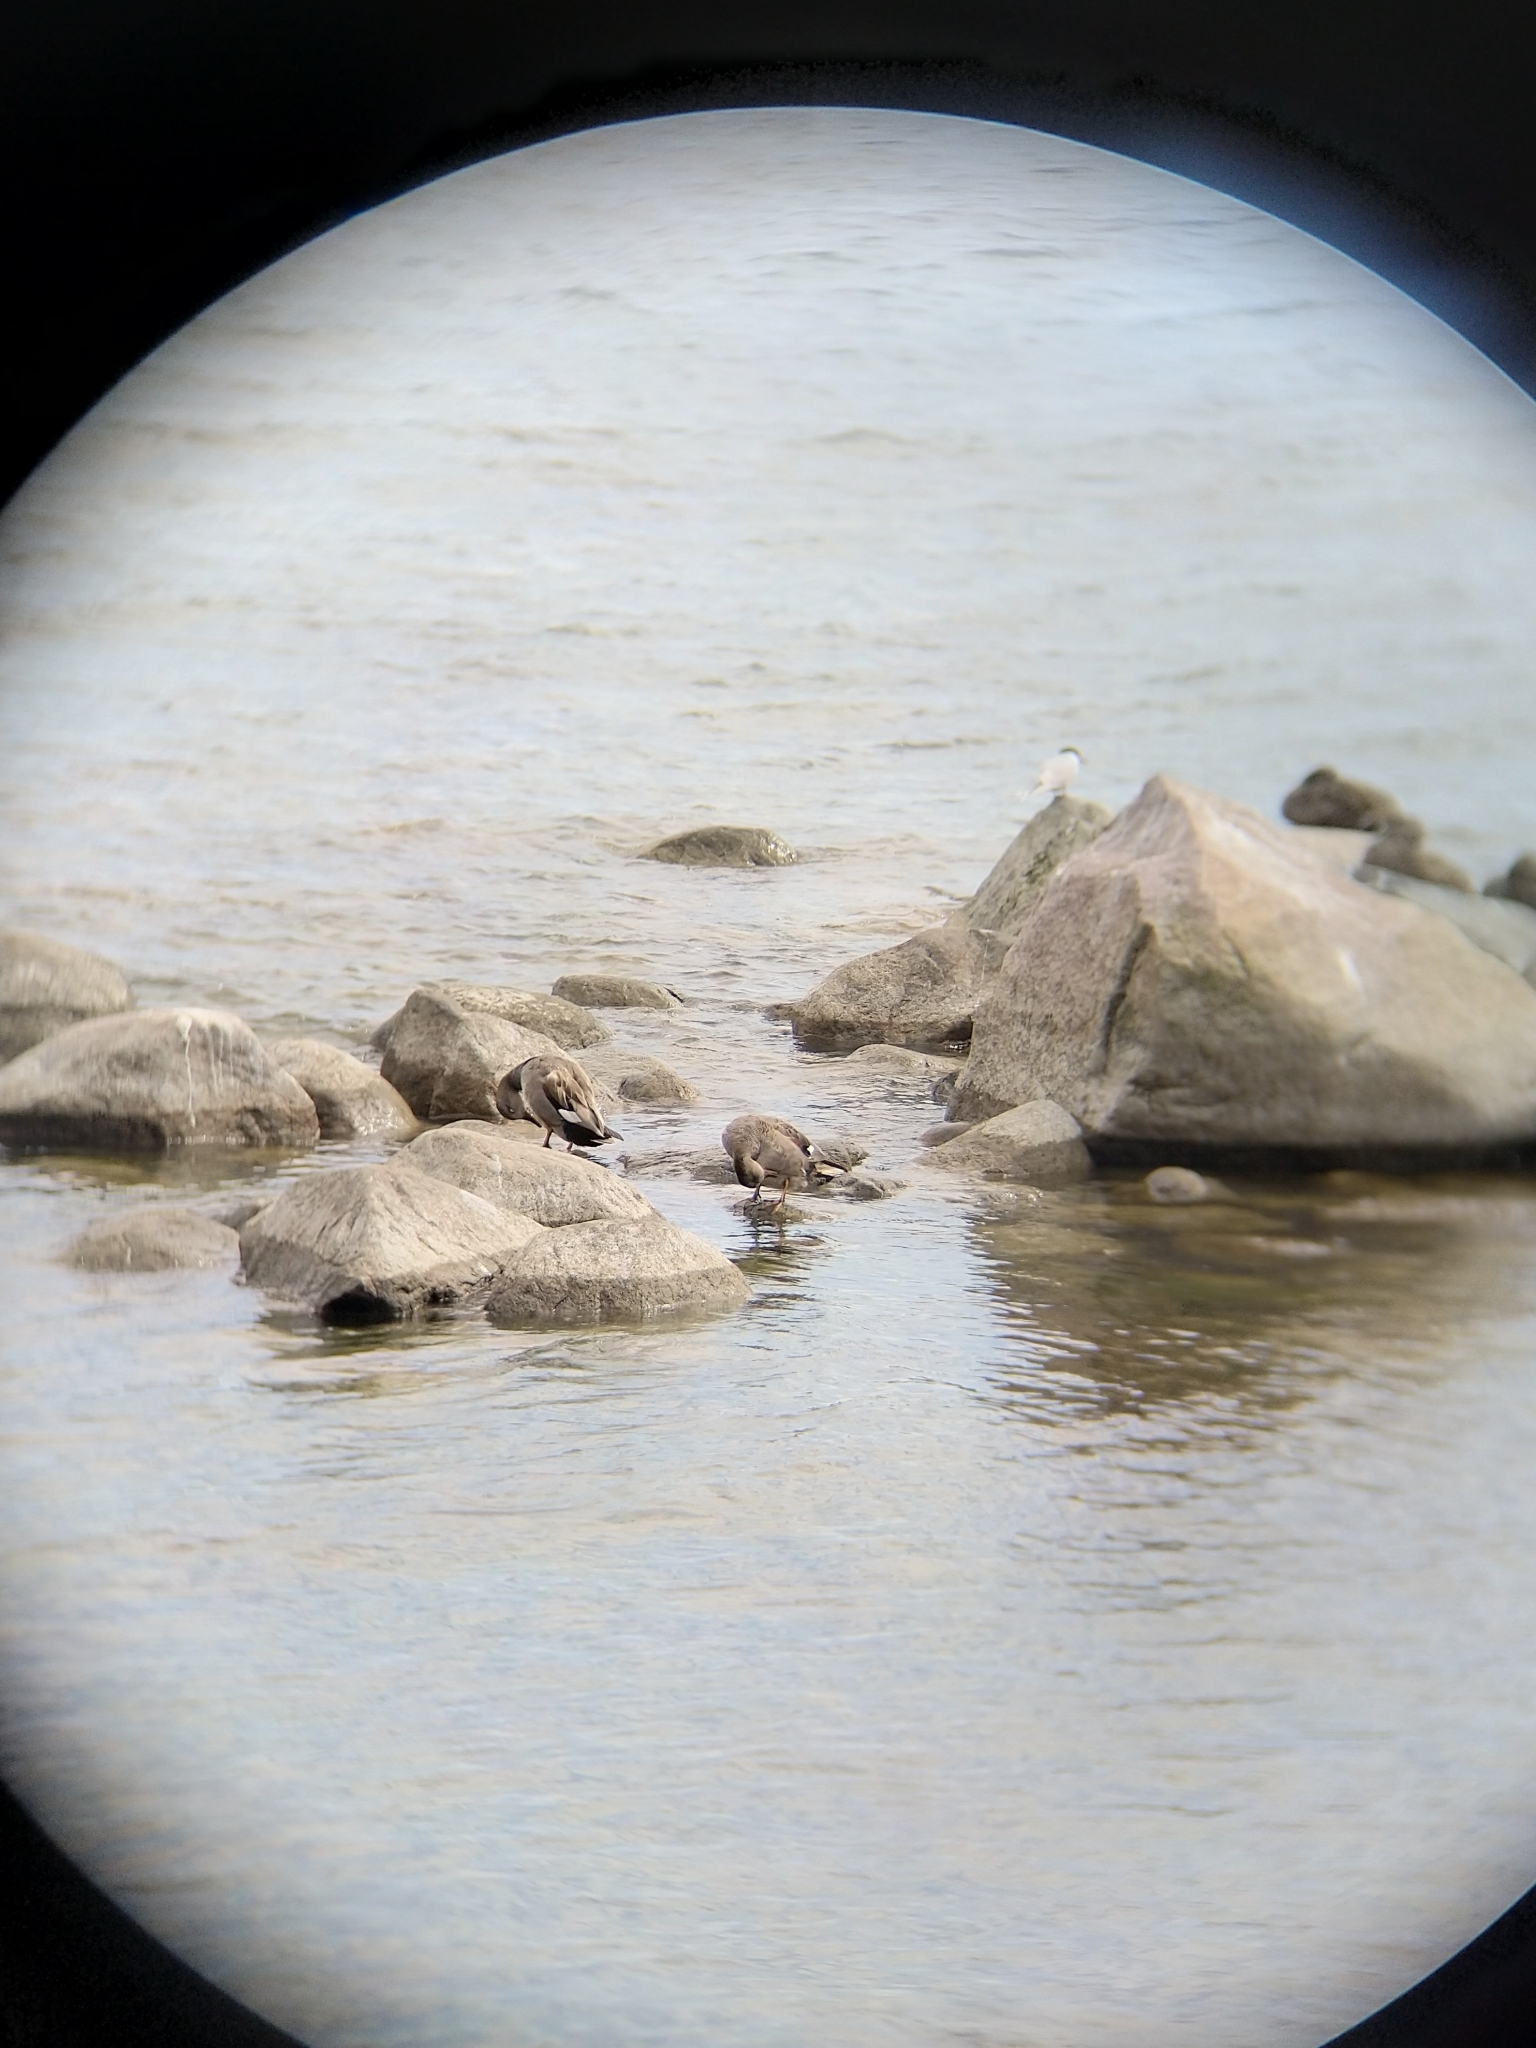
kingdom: Animalia
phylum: Chordata
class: Aves
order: Anseriformes
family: Anatidae
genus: Mareca
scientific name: Mareca strepera
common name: Gadwall
